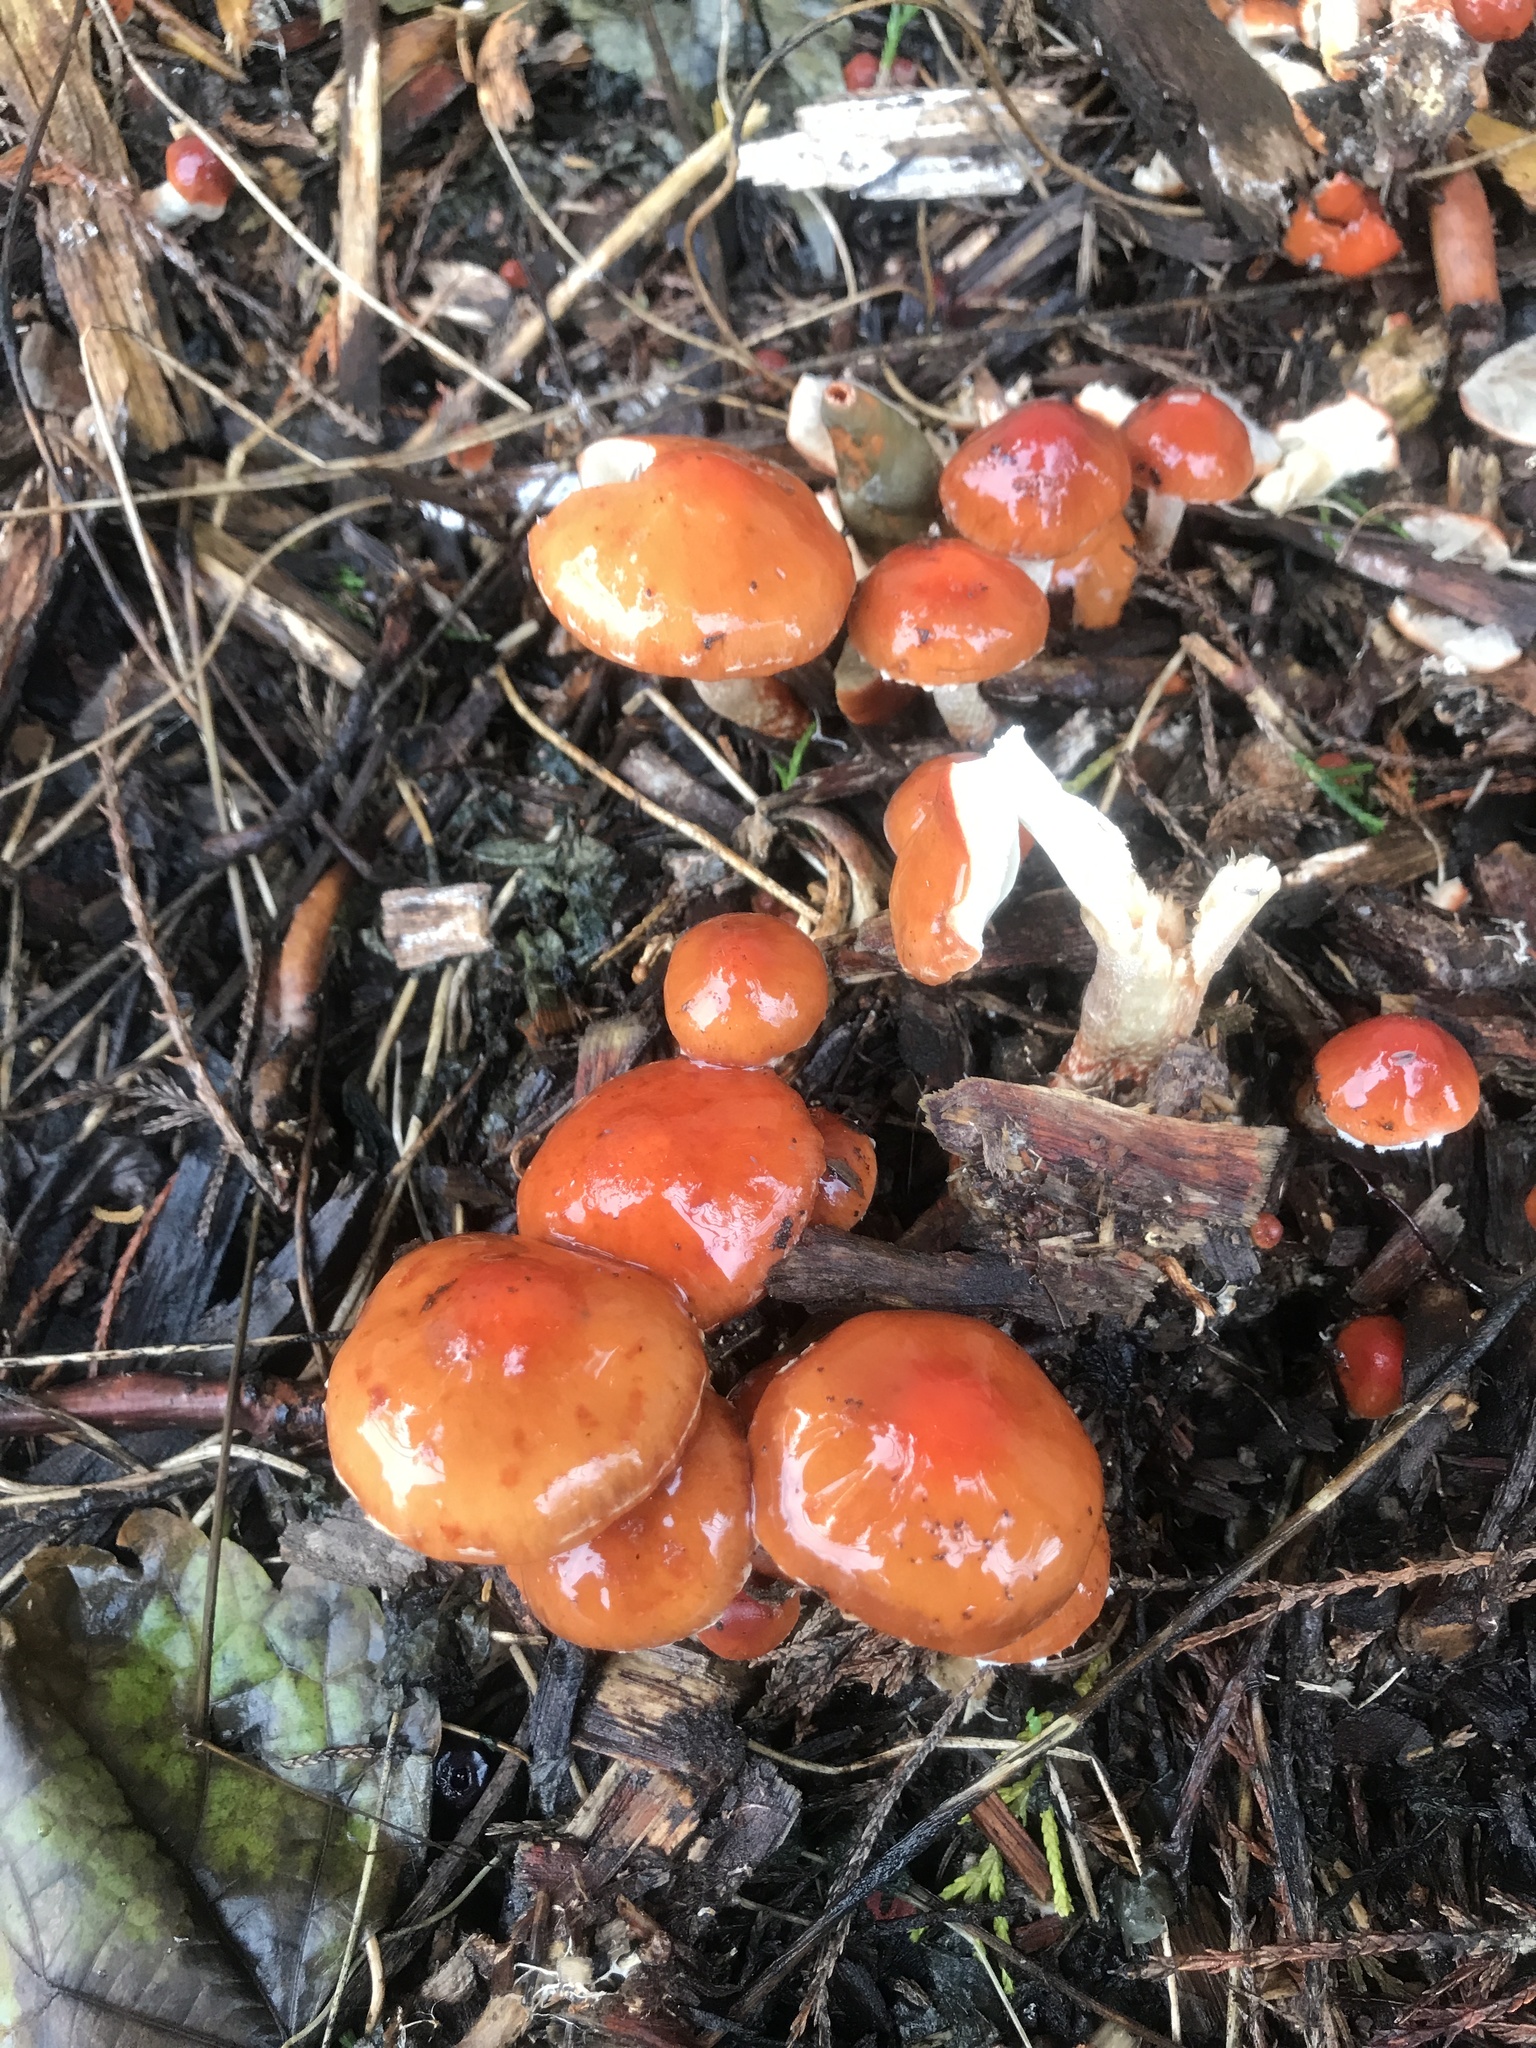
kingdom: Fungi
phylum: Basidiomycota
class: Agaricomycetes
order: Agaricales
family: Strophariaceae
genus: Leratiomyces
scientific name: Leratiomyces ceres
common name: Redlead roundhead
